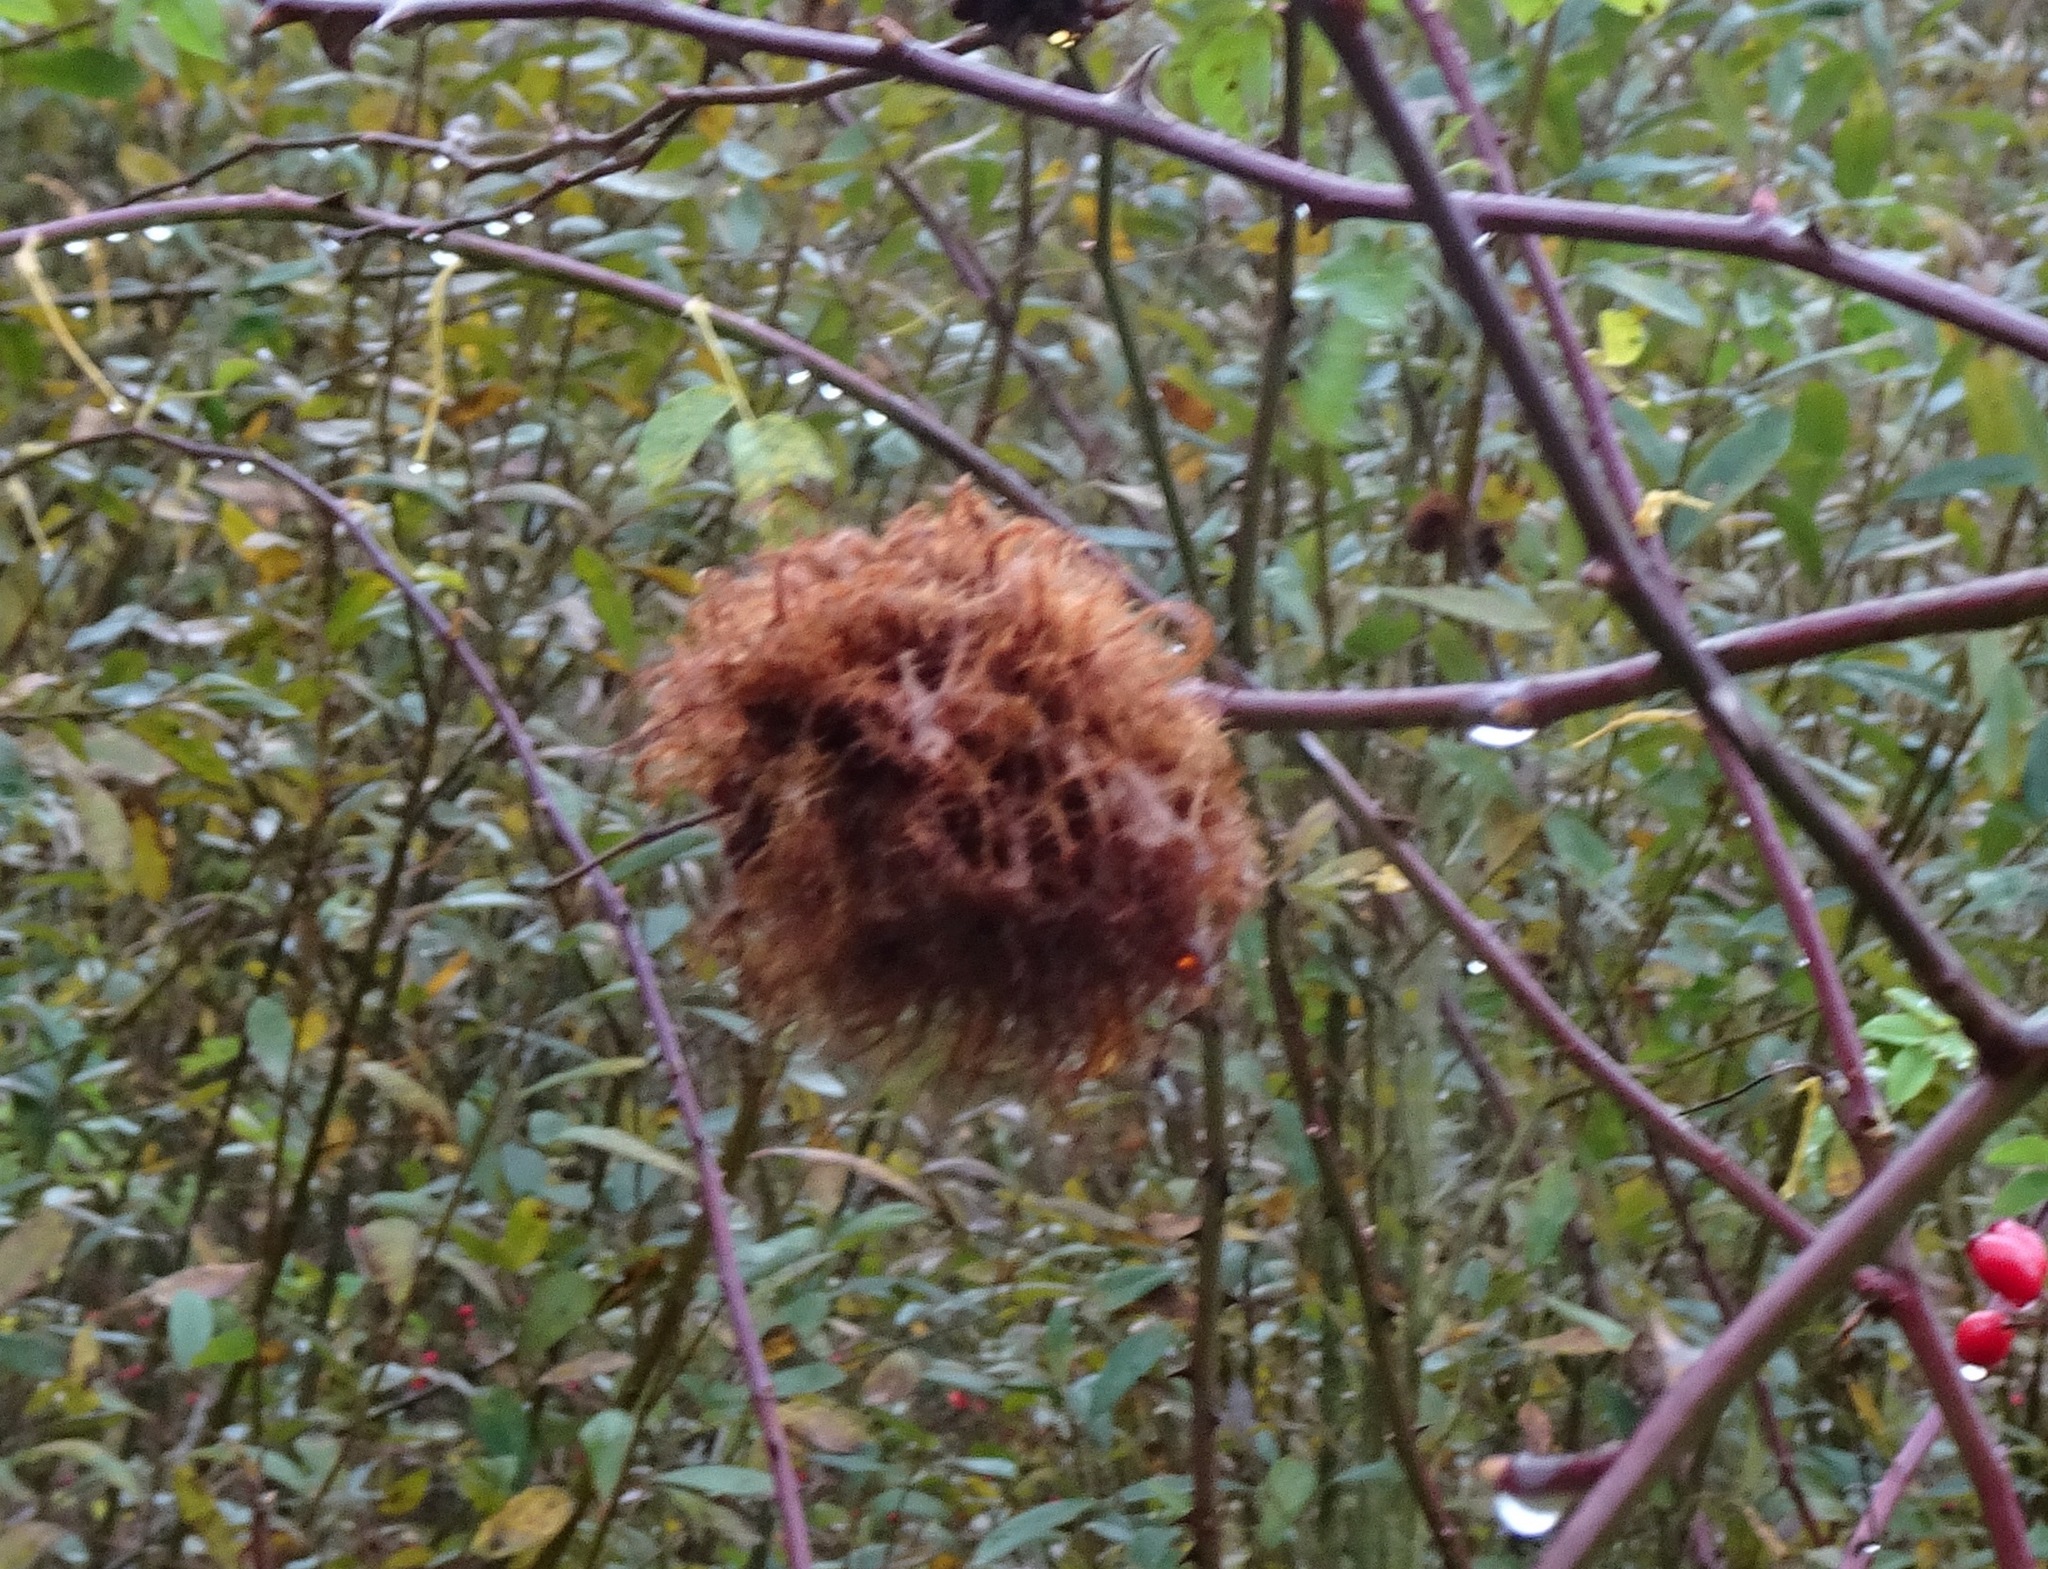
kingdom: Animalia
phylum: Arthropoda
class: Insecta
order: Hymenoptera
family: Cynipidae
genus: Diplolepis
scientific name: Diplolepis rosae
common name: Bedeguar gall
